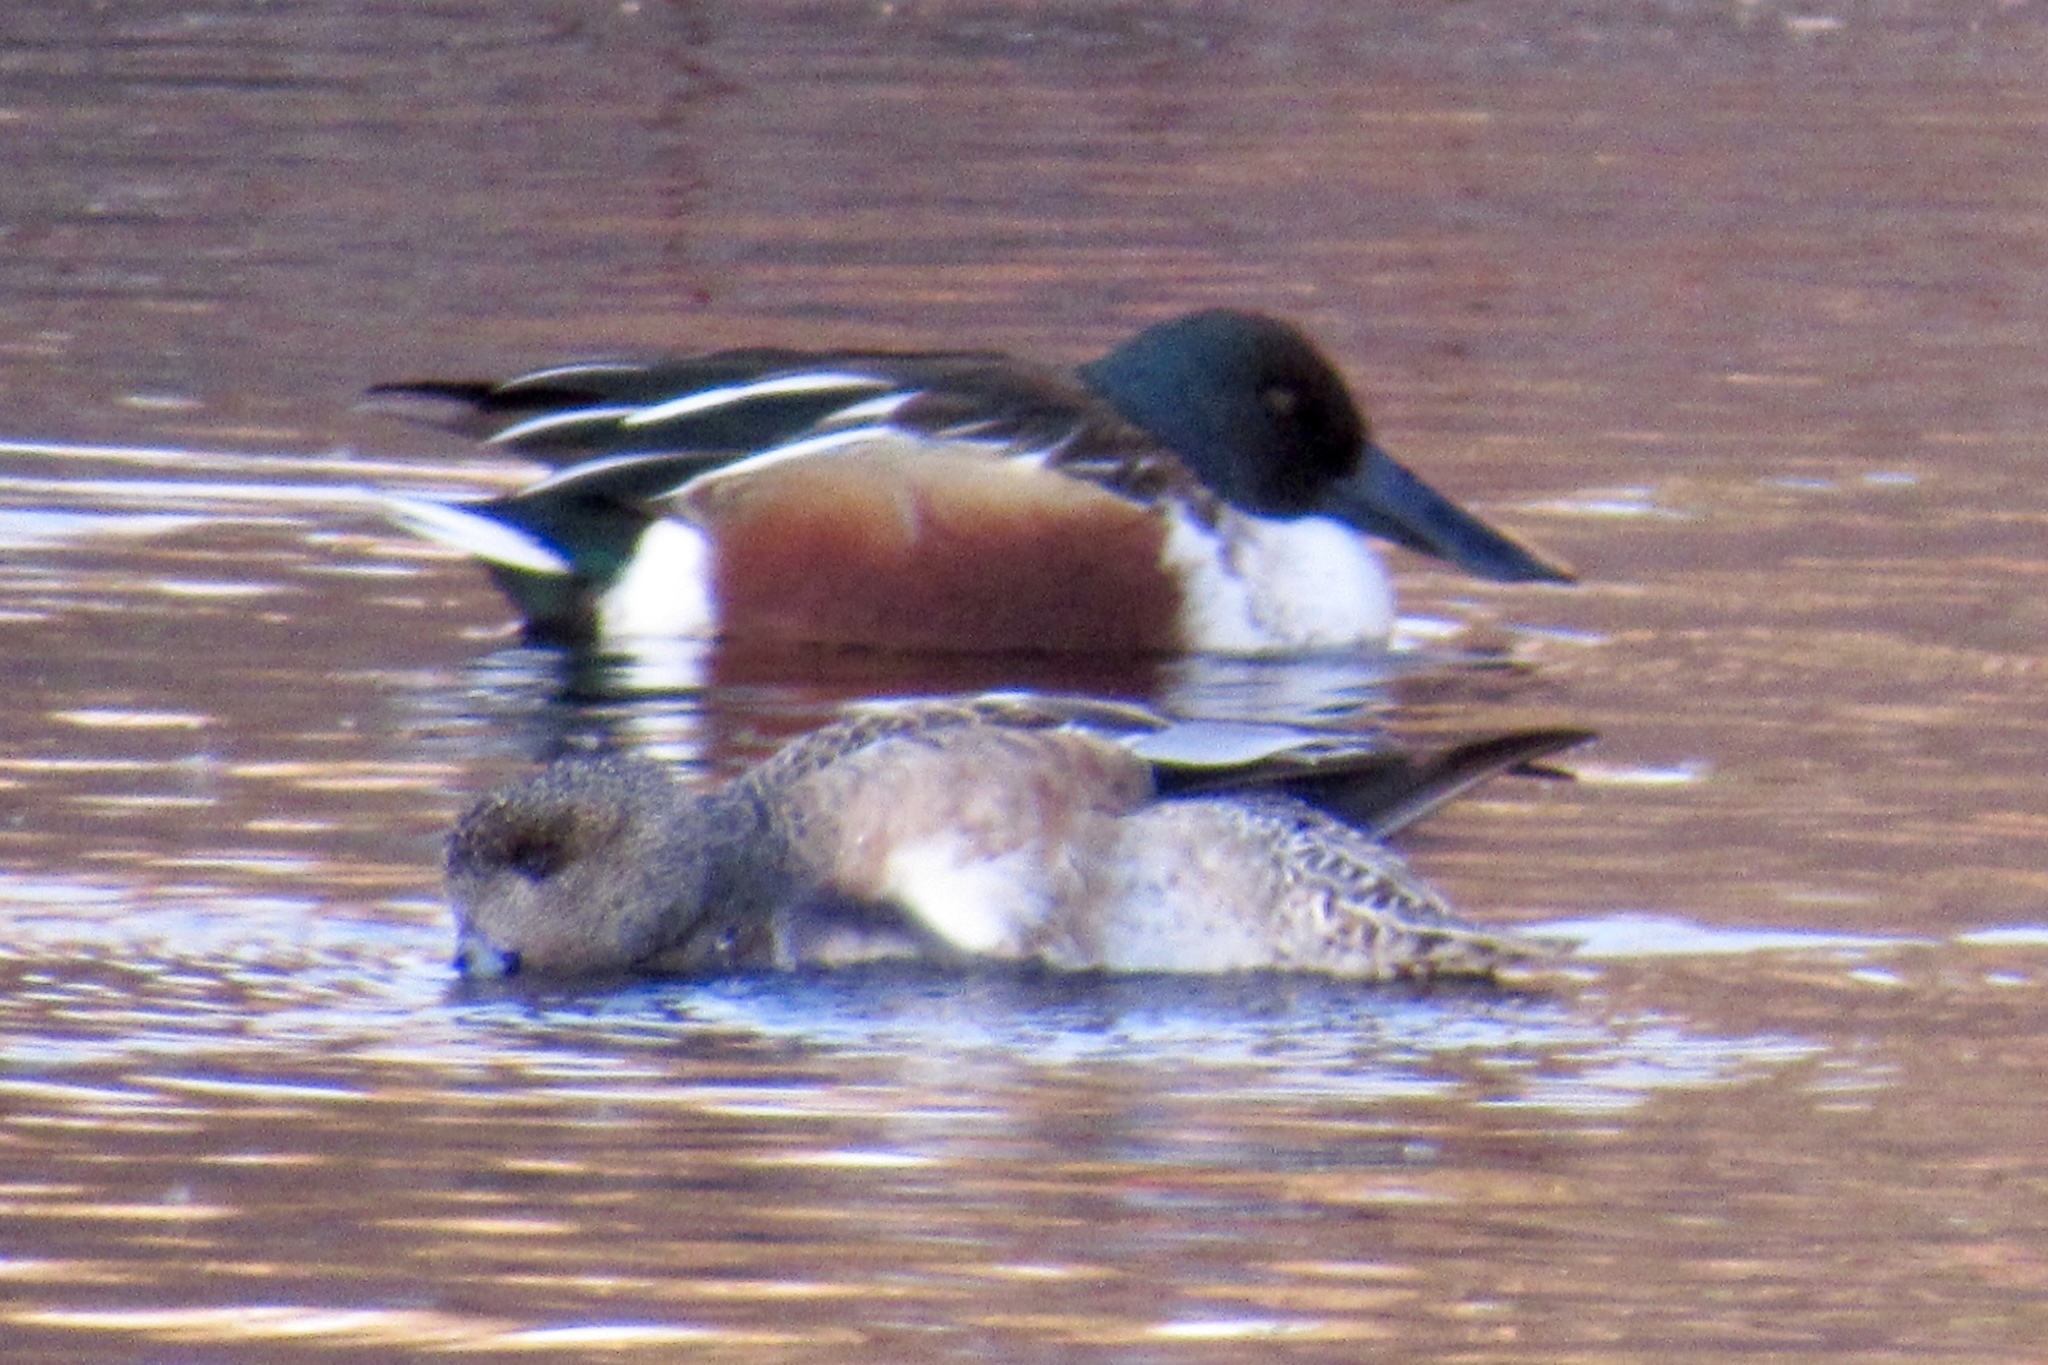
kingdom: Animalia
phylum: Chordata
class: Aves
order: Anseriformes
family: Anatidae
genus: Spatula
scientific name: Spatula clypeata
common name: Northern shoveler
